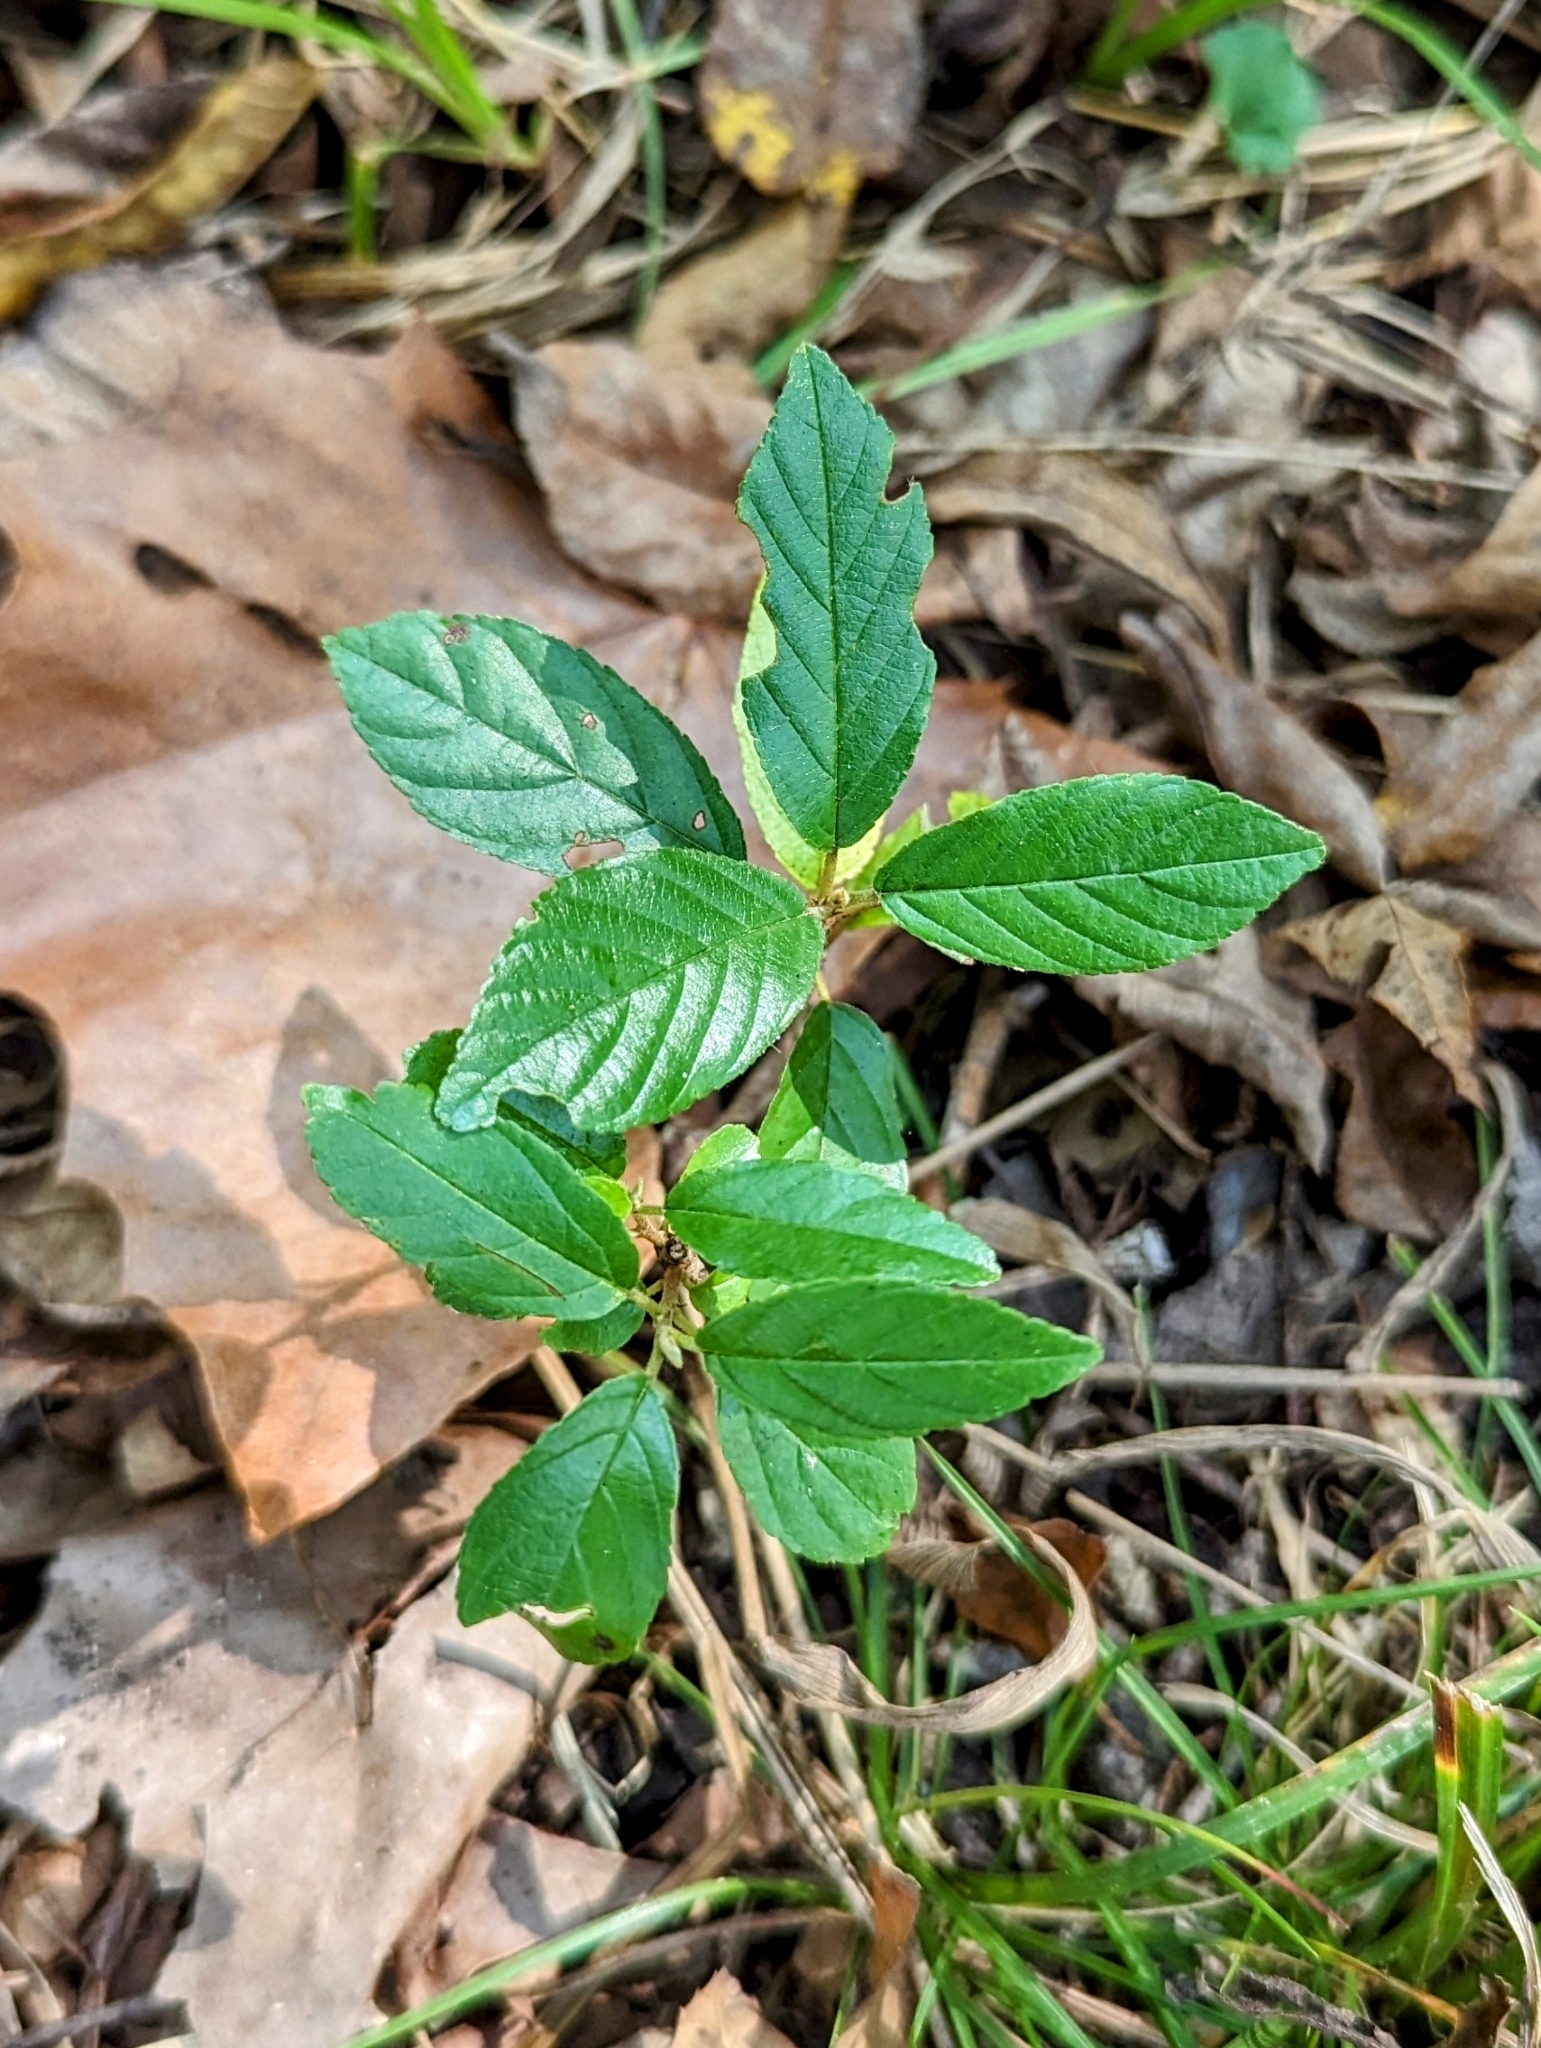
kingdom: Plantae
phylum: Tracheophyta
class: Magnoliopsida
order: Rosales
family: Rhamnaceae
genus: Ceanothus
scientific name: Ceanothus americanus
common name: Redroot
